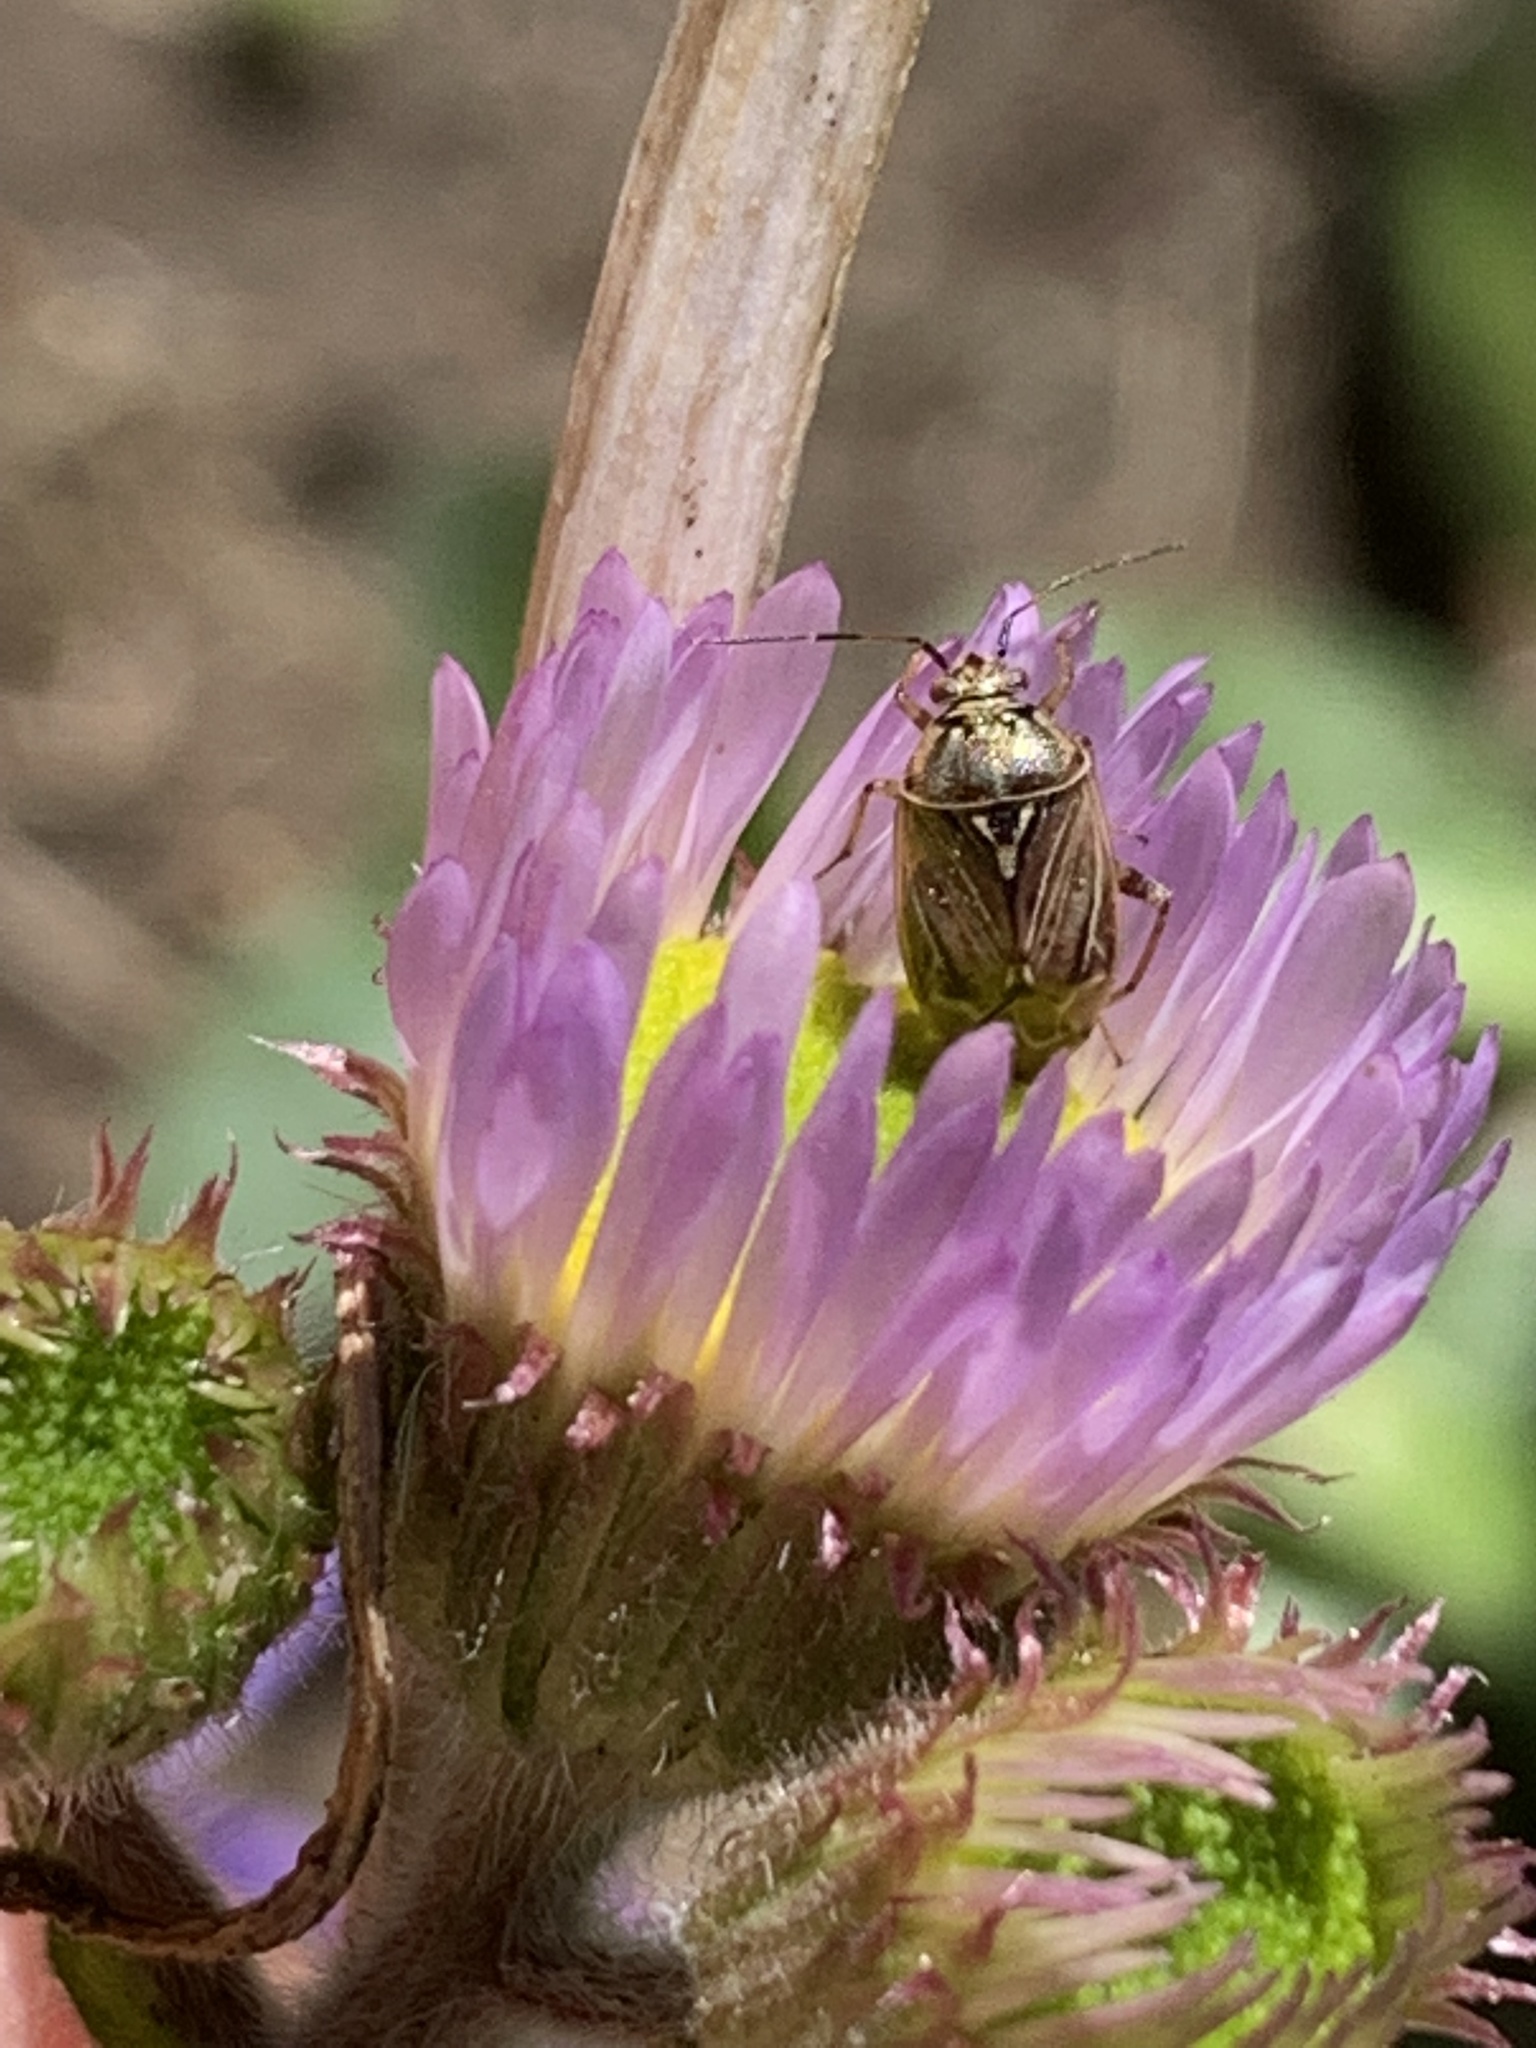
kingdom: Animalia
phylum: Arthropoda
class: Insecta
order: Hemiptera
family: Miridae
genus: Lygus
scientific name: Lygus lineolaris
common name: North american tarnished plant bug
